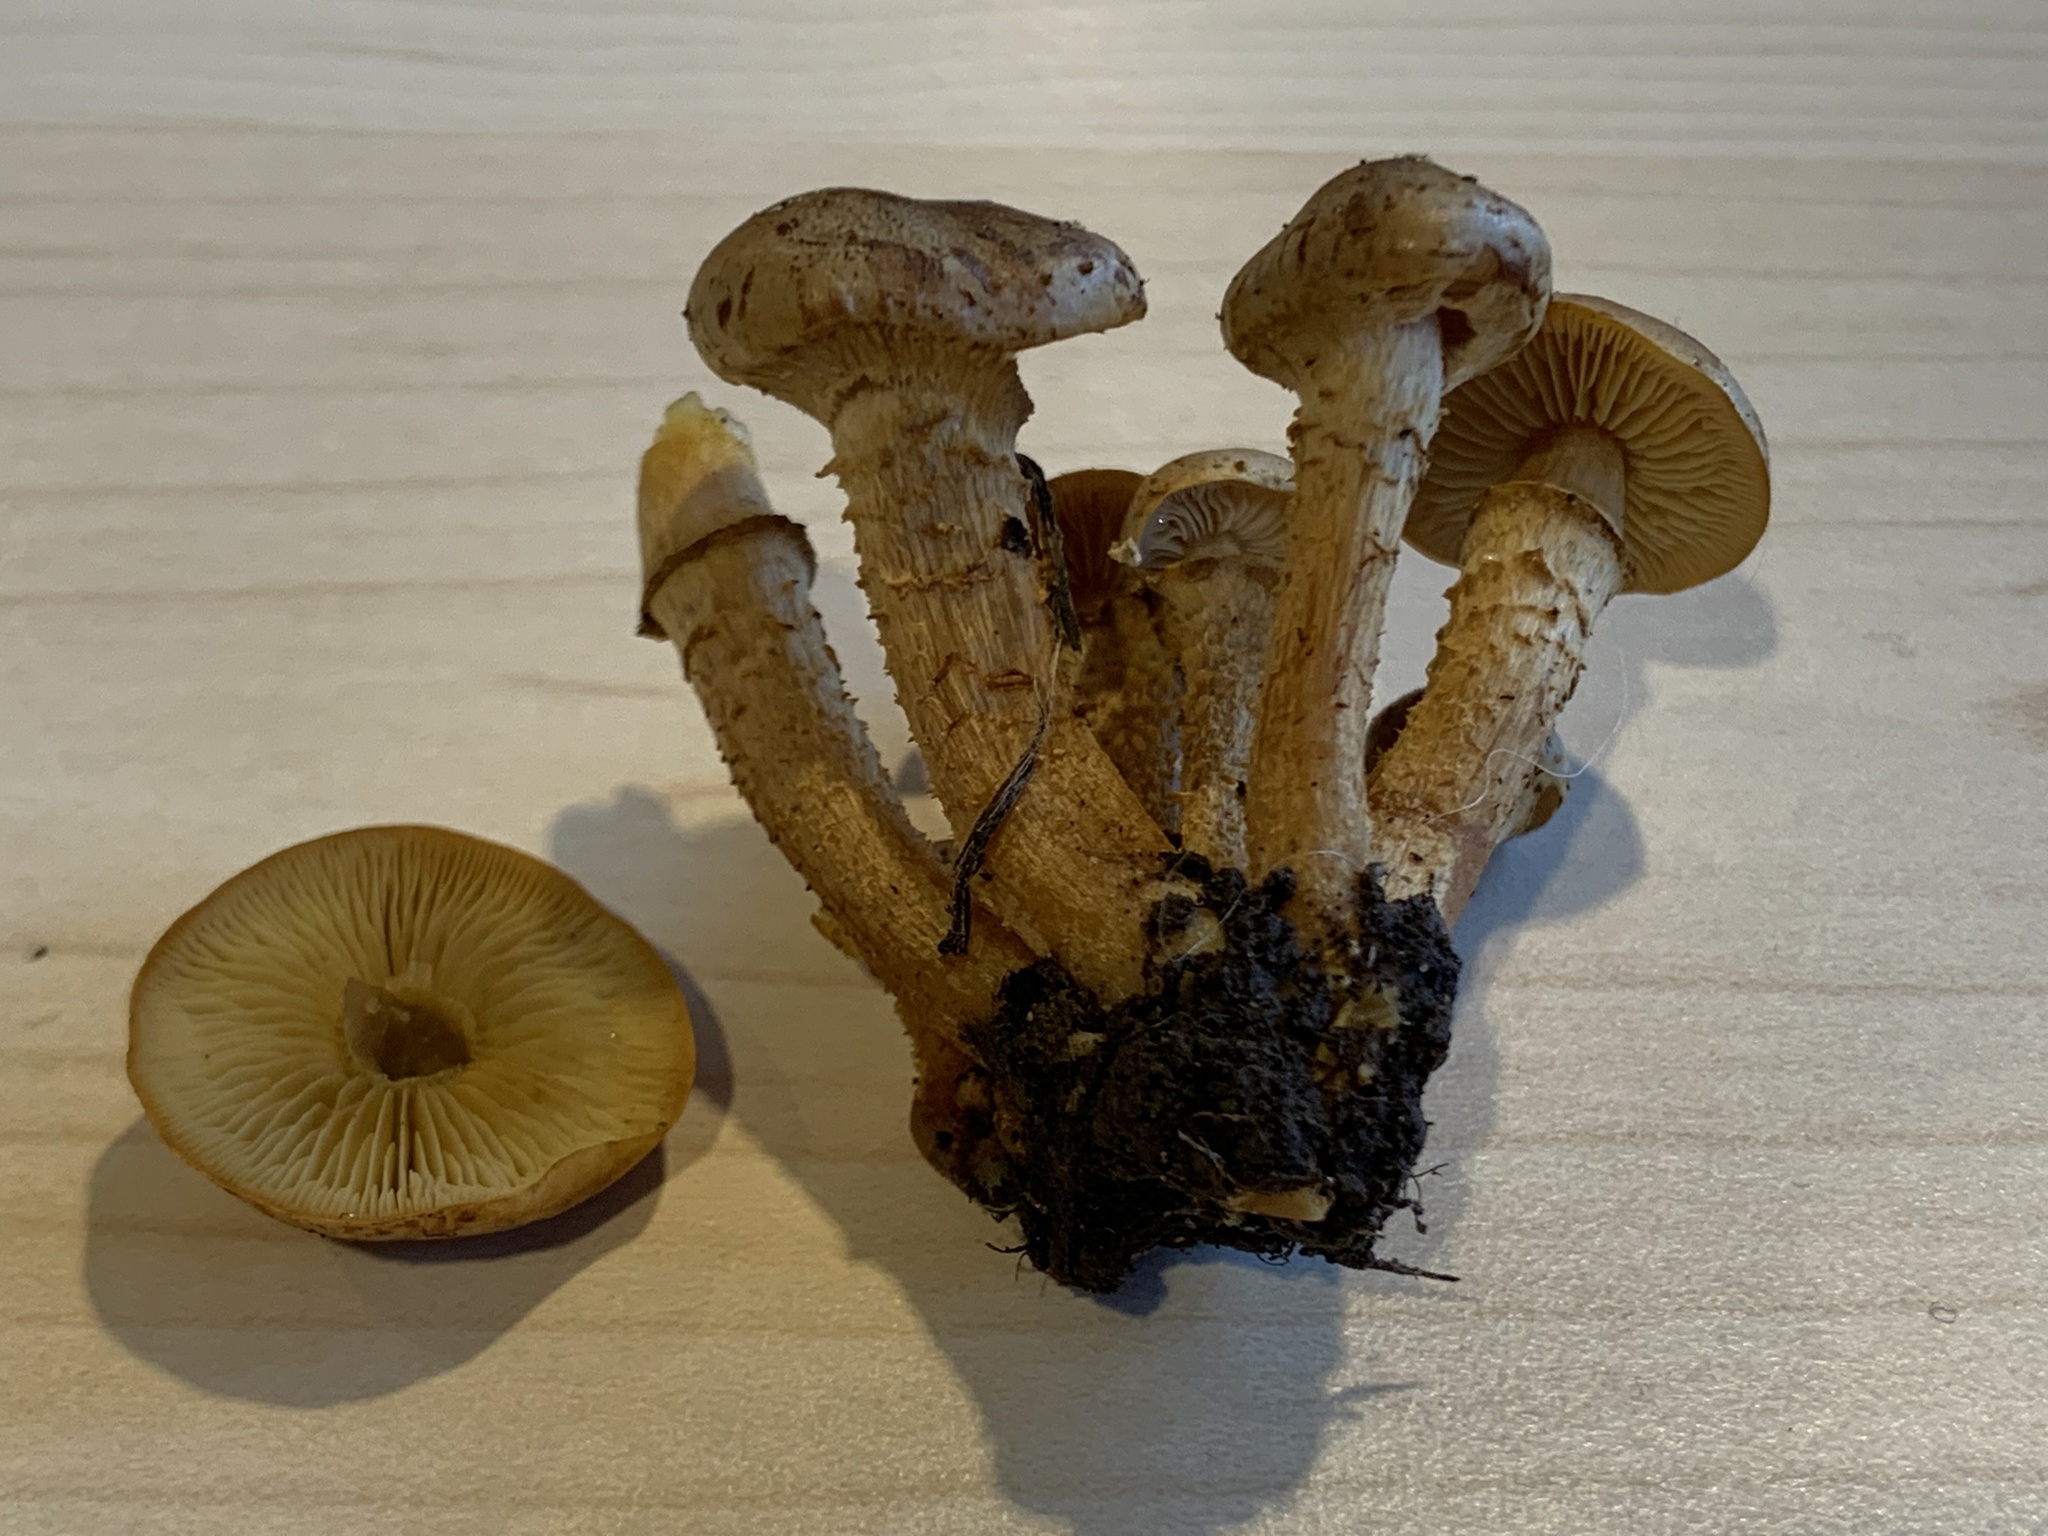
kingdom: Fungi
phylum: Basidiomycota
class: Agaricomycetes
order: Agaricales
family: Strophariaceae
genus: Pholiota
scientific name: Pholiota gummosa
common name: Sticky scalycap
